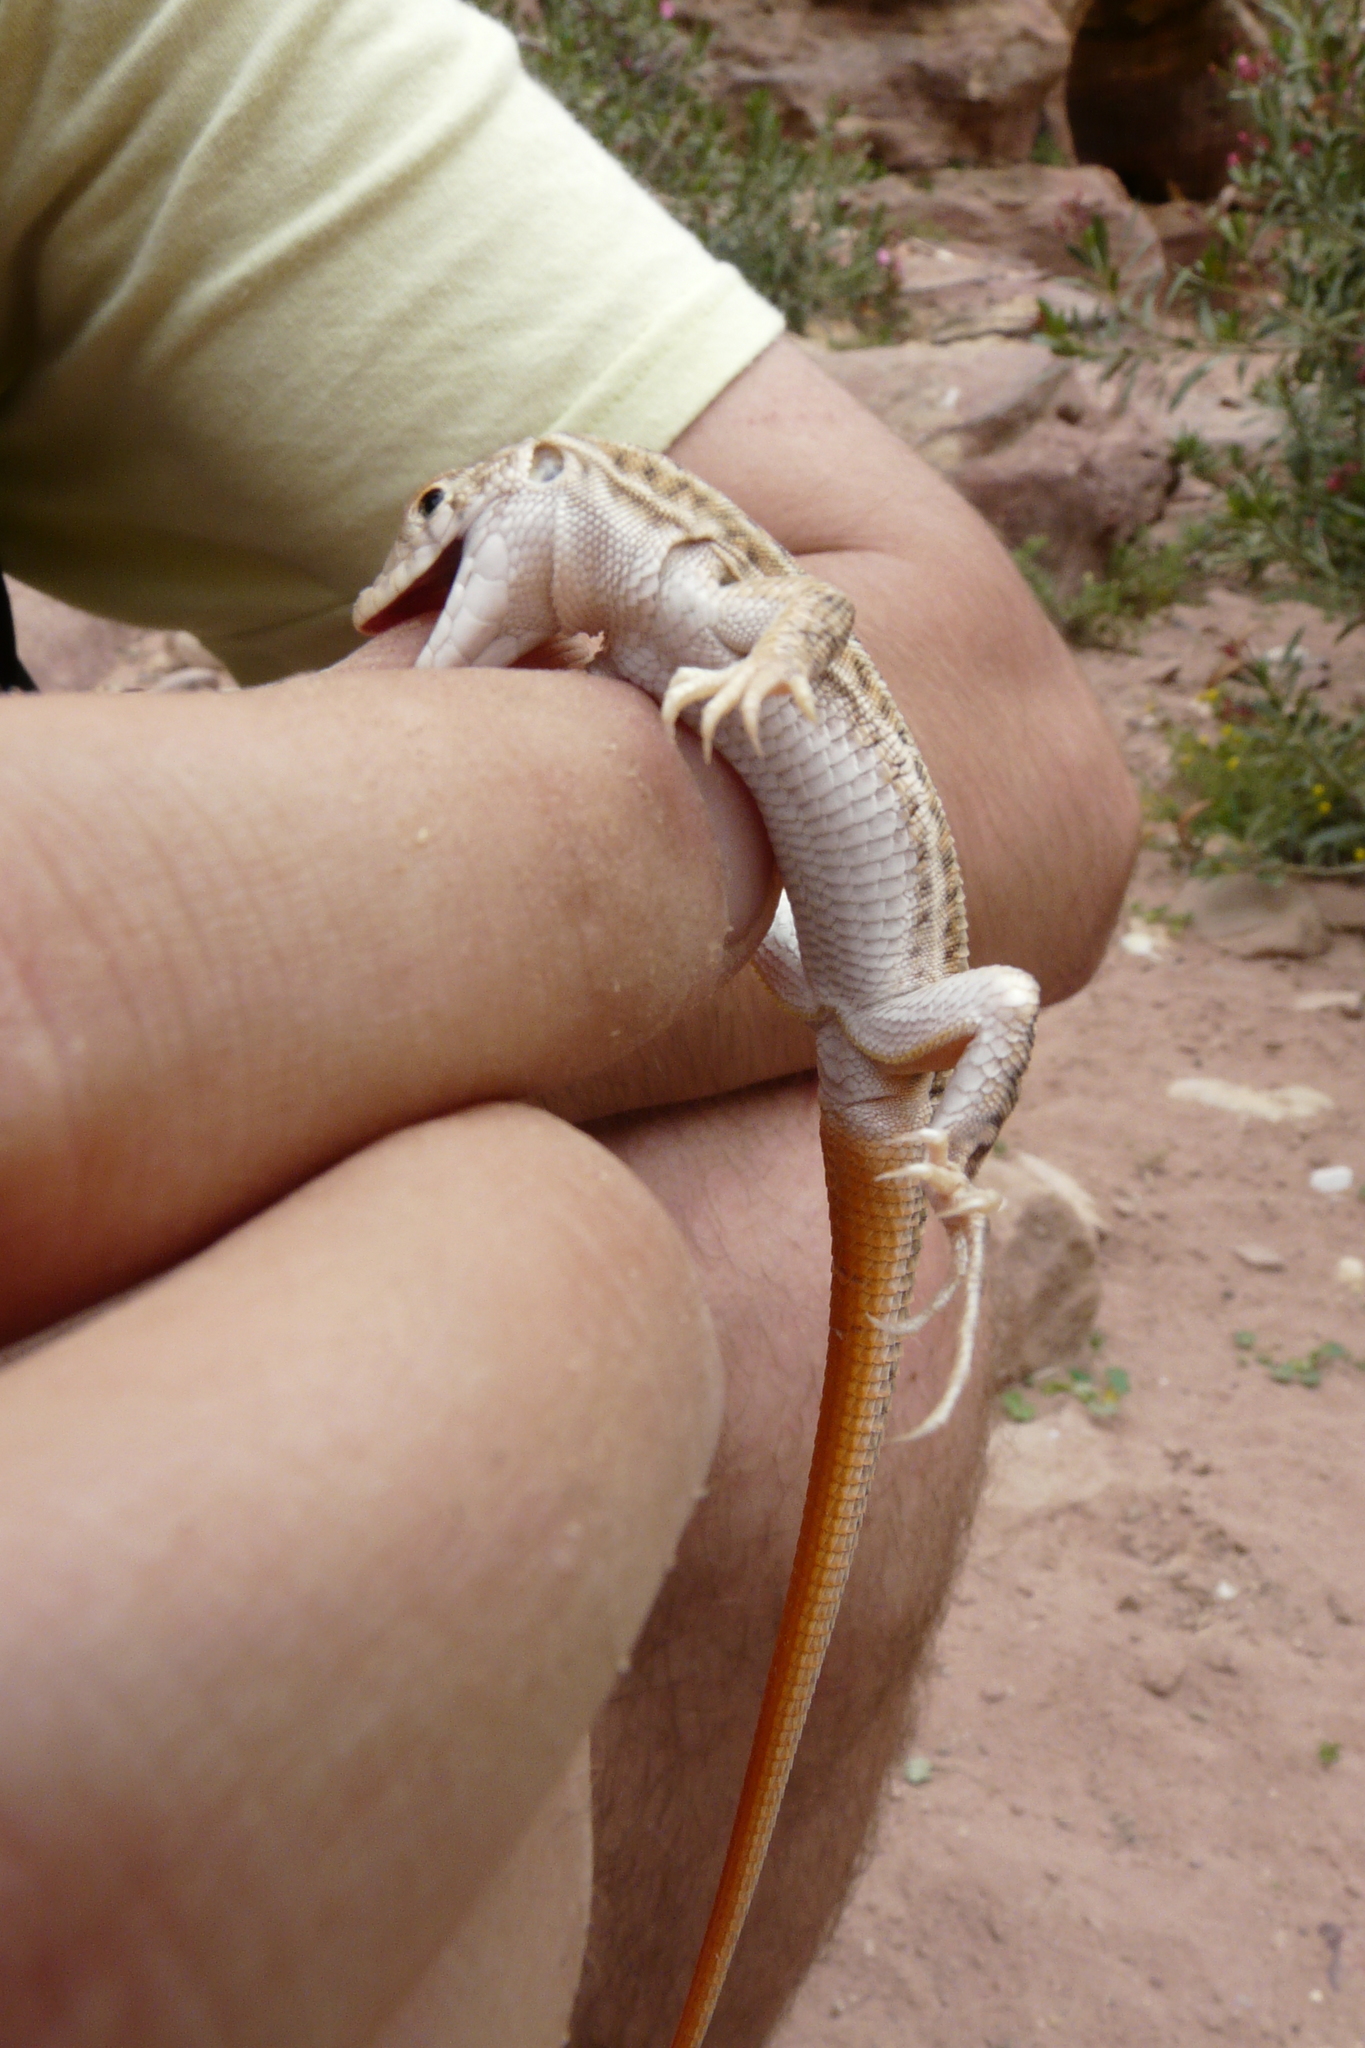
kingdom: Animalia
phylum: Chordata
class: Squamata
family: Lacertidae
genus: Acanthodactylus
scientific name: Acanthodactylus boskianus
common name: Bosc’s fringe-toed lizard
